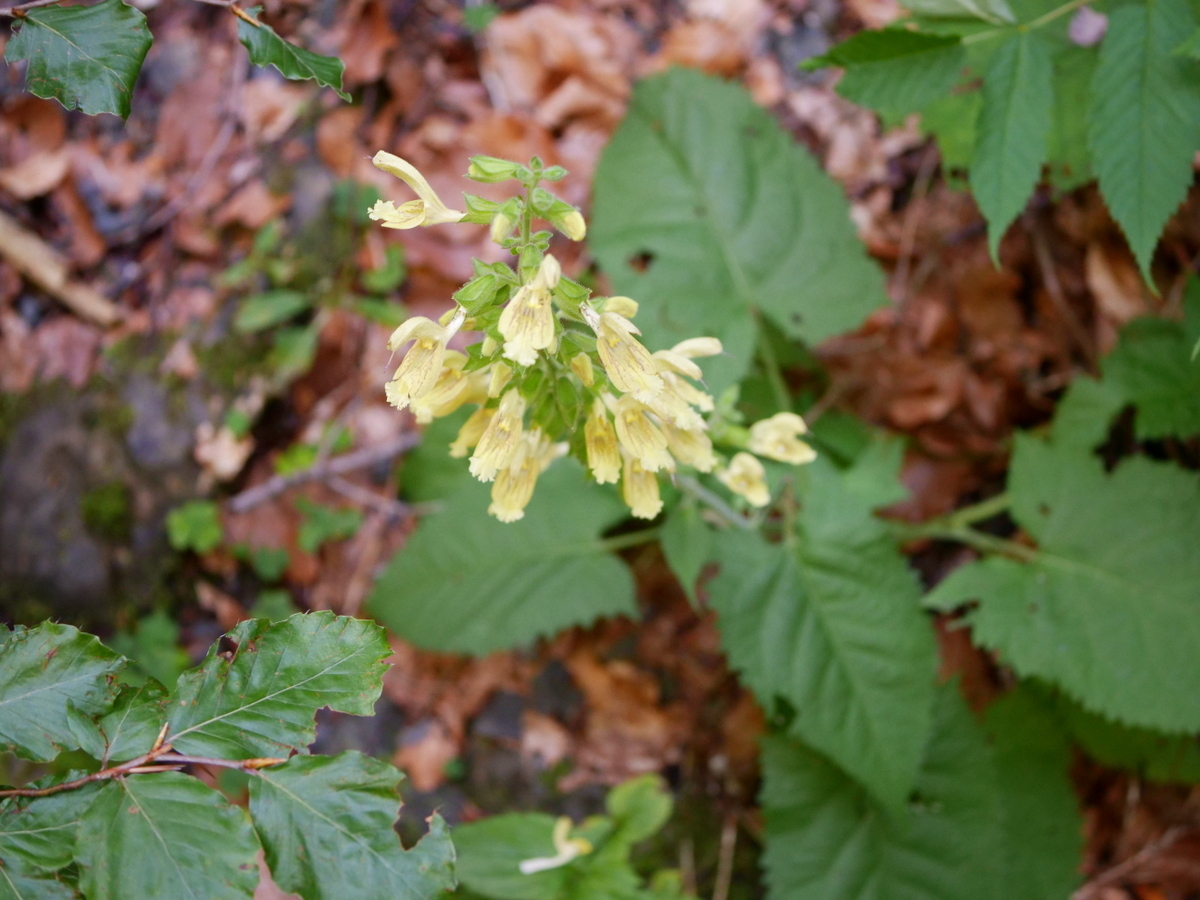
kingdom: Plantae
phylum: Tracheophyta
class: Magnoliopsida
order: Lamiales
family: Lamiaceae
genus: Salvia
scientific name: Salvia glutinosa
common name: Sticky clary
